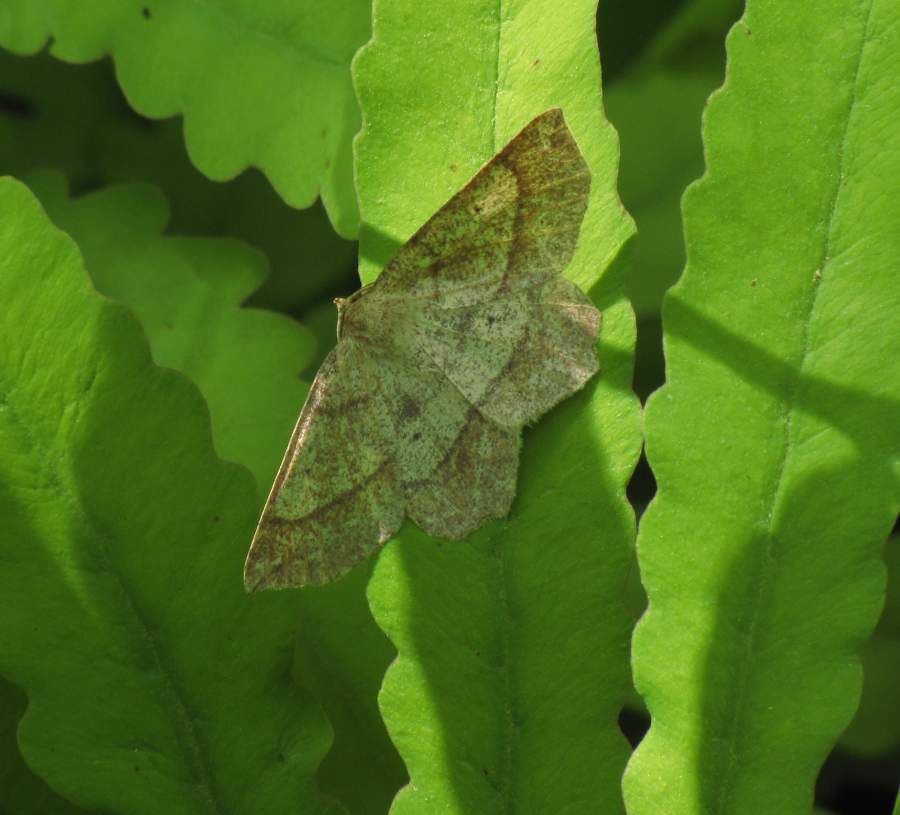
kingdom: Animalia
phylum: Arthropoda
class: Insecta
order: Lepidoptera
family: Geometridae
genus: Euchlaena
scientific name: Euchlaena marginaria
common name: Ochre euchlaena moth
